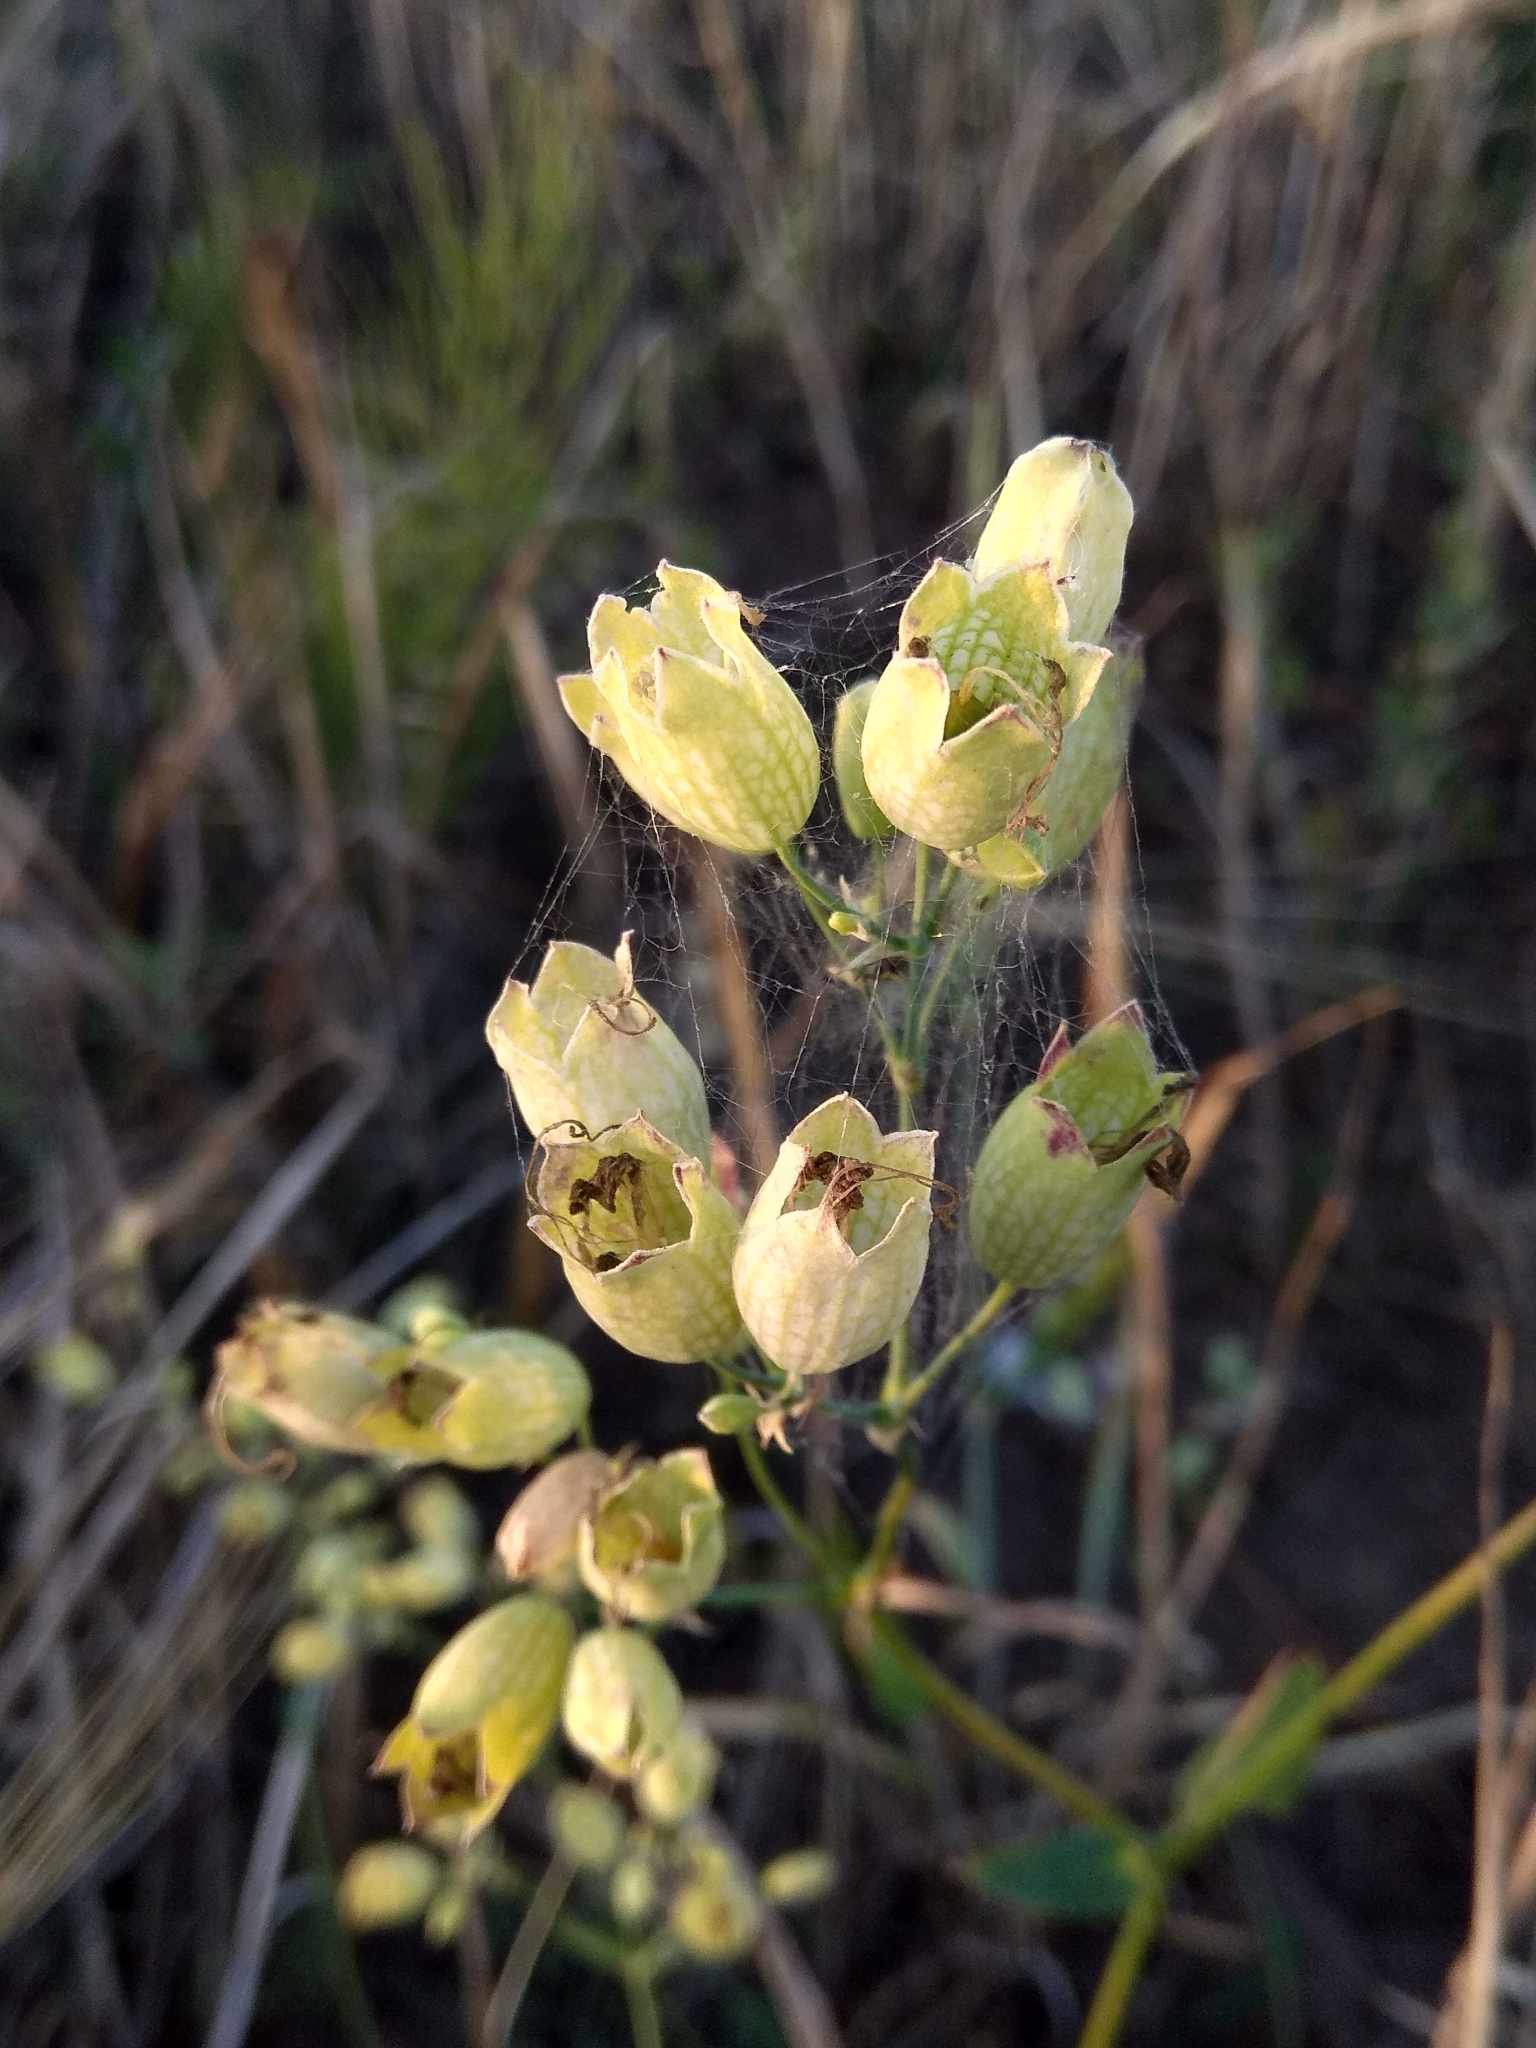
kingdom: Plantae
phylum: Tracheophyta
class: Magnoliopsida
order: Caryophyllales
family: Caryophyllaceae
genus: Silene
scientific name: Silene vulgaris
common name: Bladder campion
